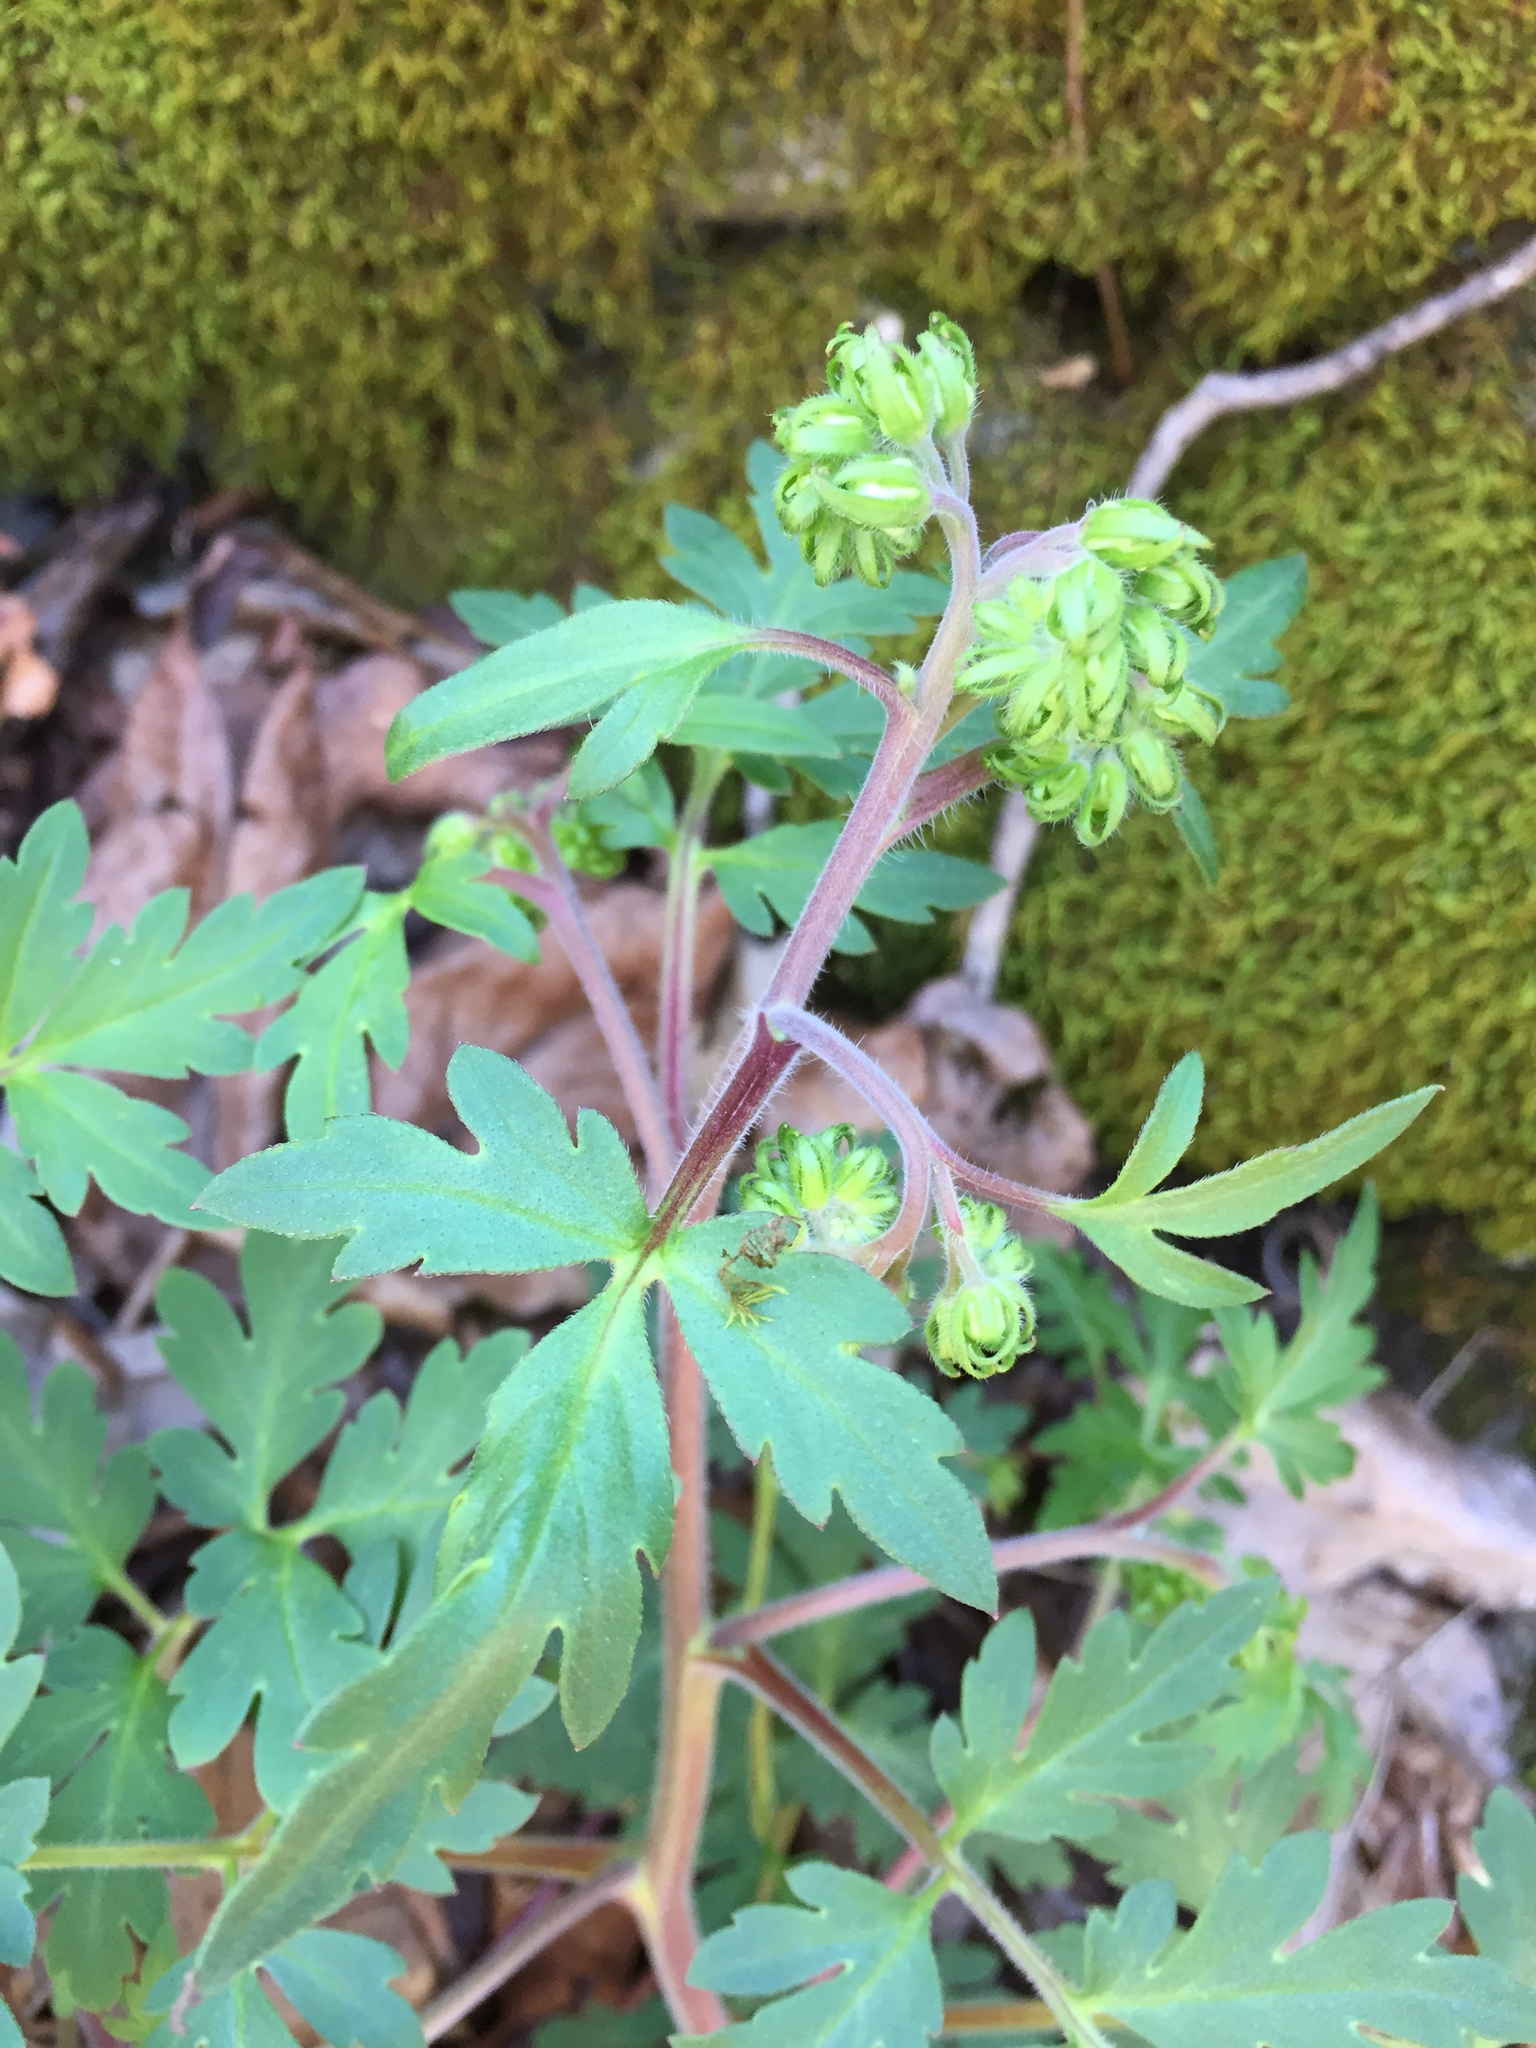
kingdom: Plantae
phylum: Tracheophyta
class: Magnoliopsida
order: Boraginales
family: Hydrophyllaceae
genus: Phacelia
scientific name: Phacelia bipinnatifida
